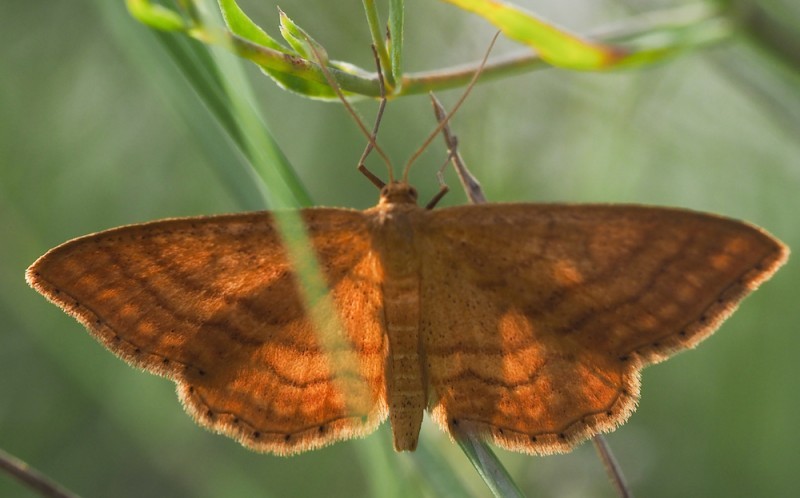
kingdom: Animalia
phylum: Arthropoda
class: Insecta
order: Lepidoptera
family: Geometridae
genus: Idaea
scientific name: Idaea ochrata
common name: Bright wave
